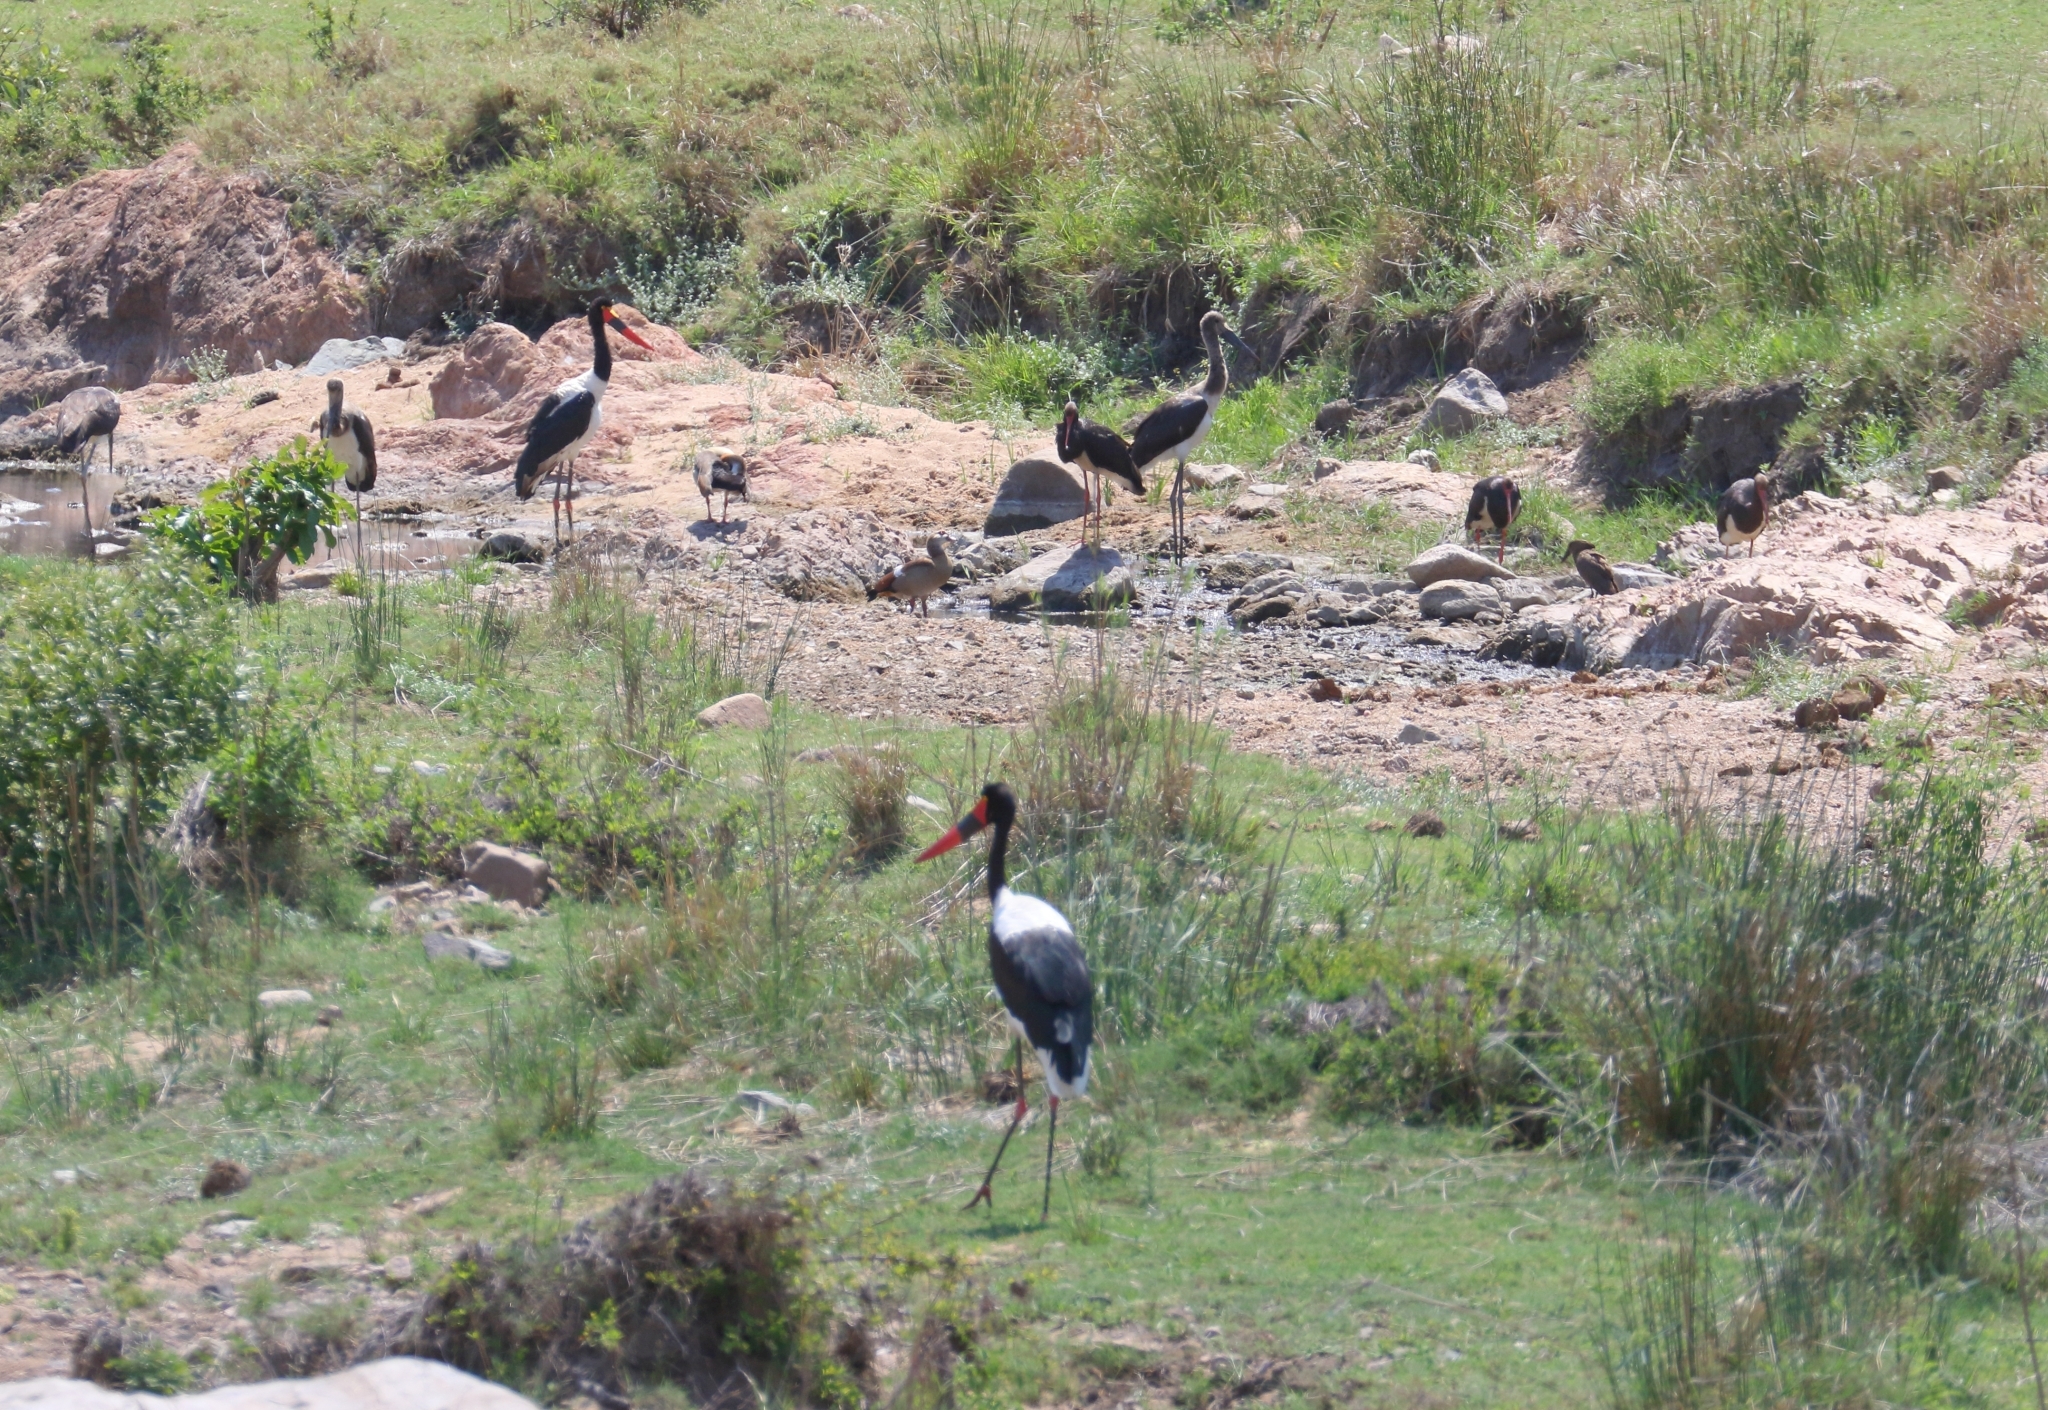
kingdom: Animalia
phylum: Chordata
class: Aves
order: Ciconiiformes
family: Ciconiidae
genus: Ciconia
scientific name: Ciconia nigra
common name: Black stork
